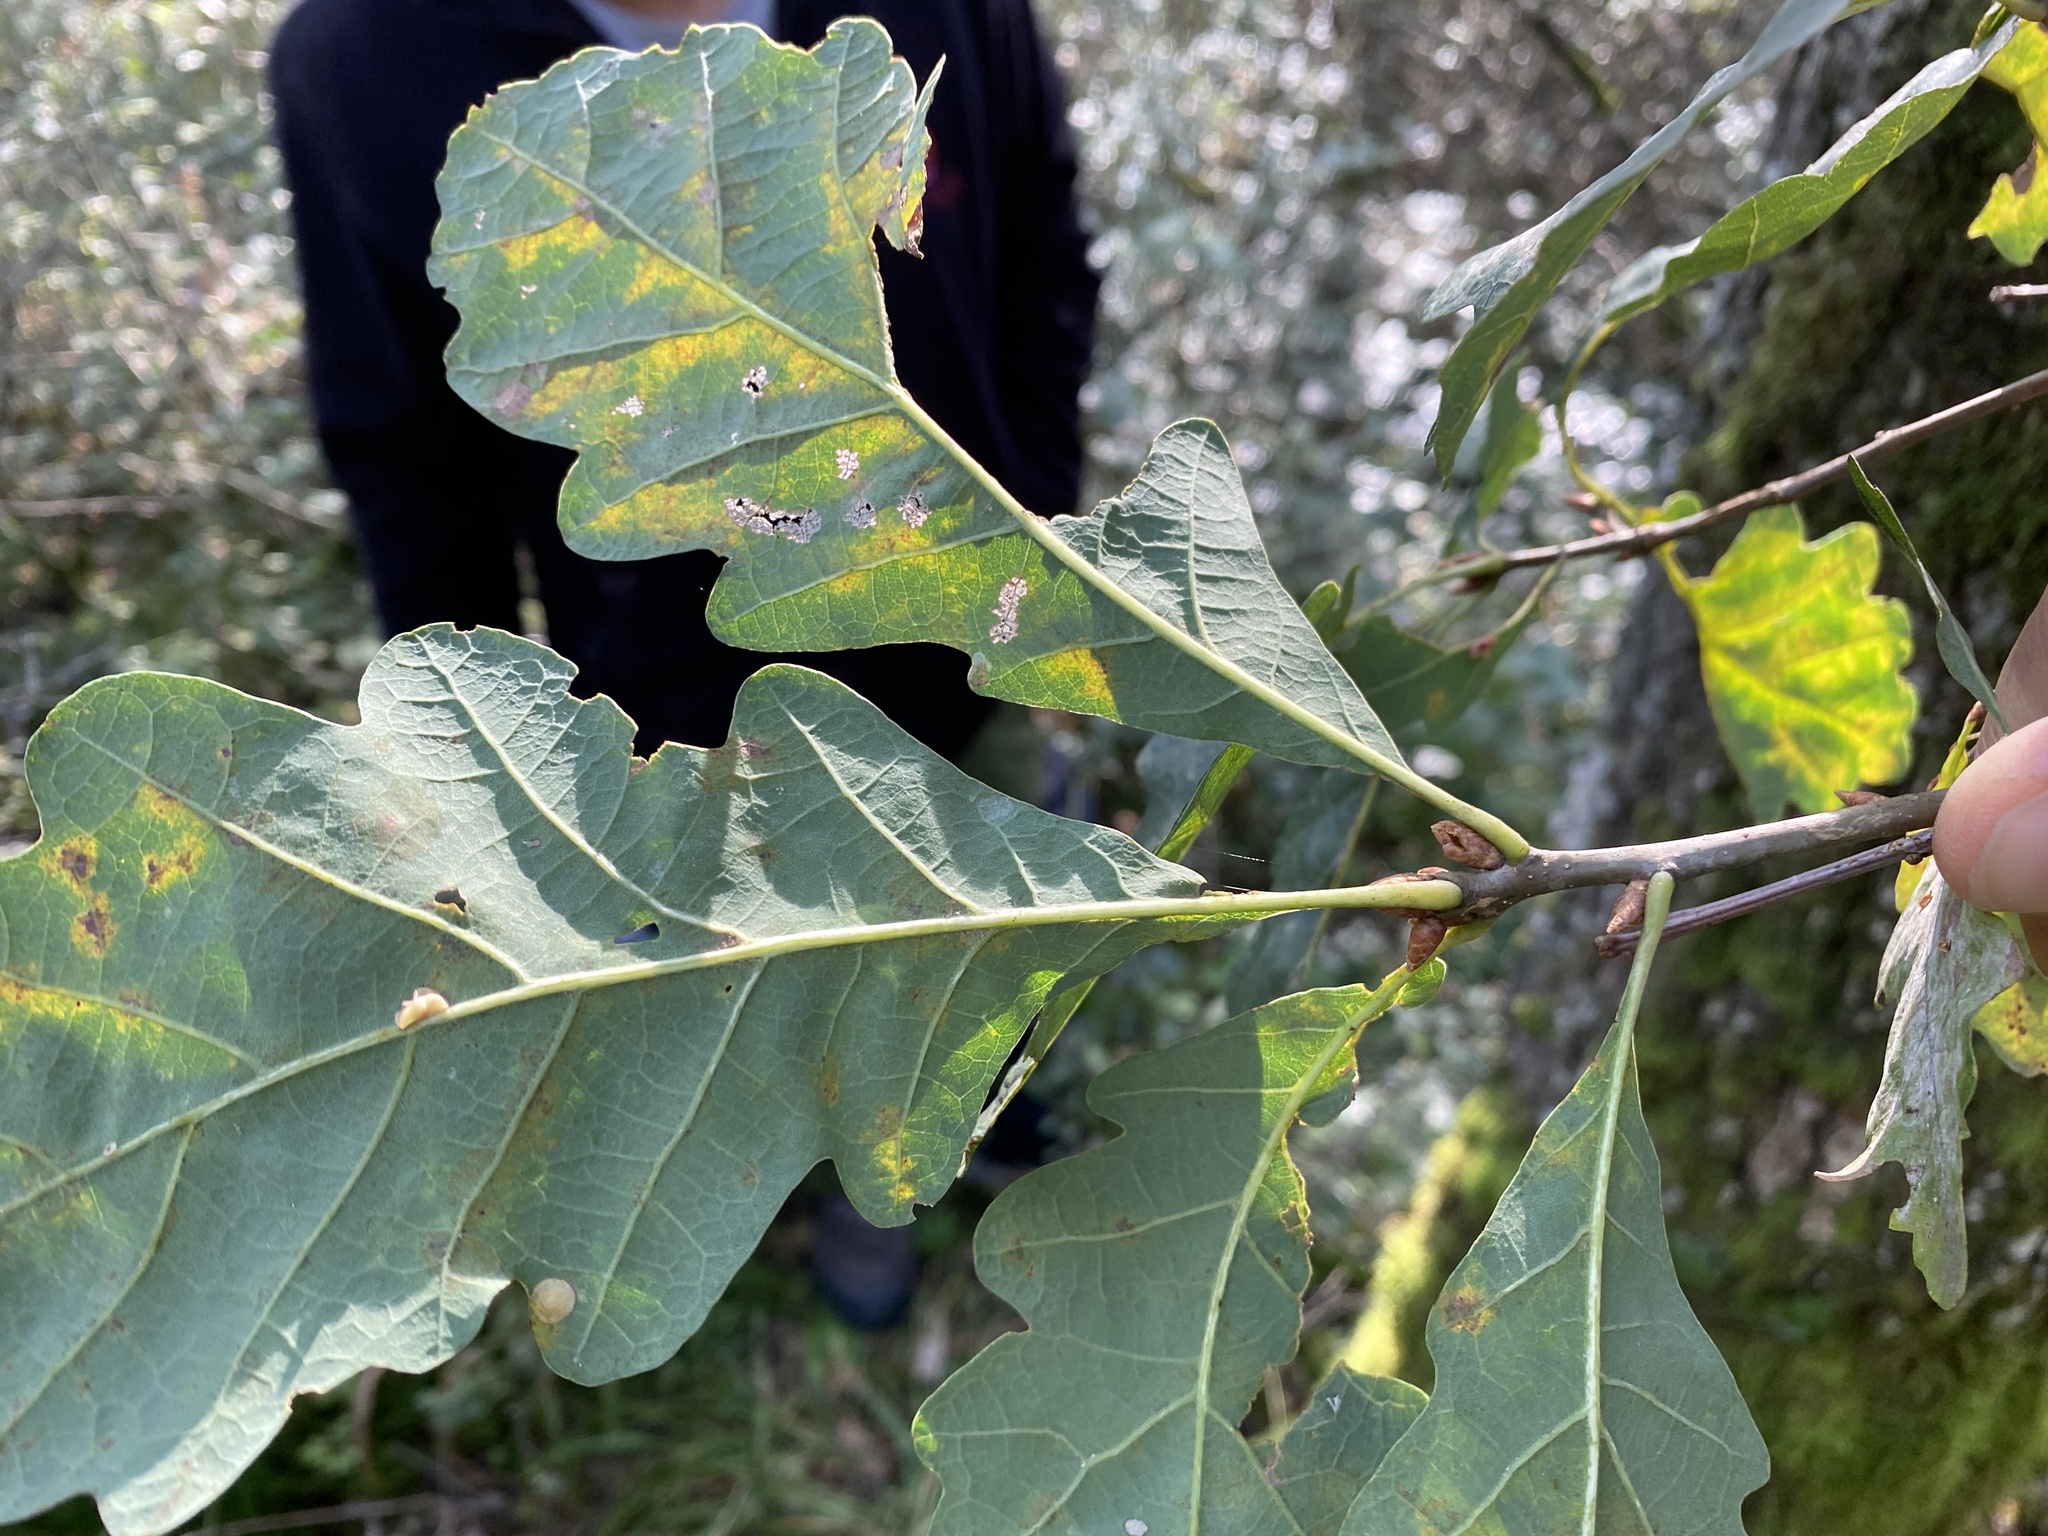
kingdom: Plantae
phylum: Tracheophyta
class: Magnoliopsida
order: Fagales
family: Fagaceae
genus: Quercus
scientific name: Quercus petraea
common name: Sessile oak
